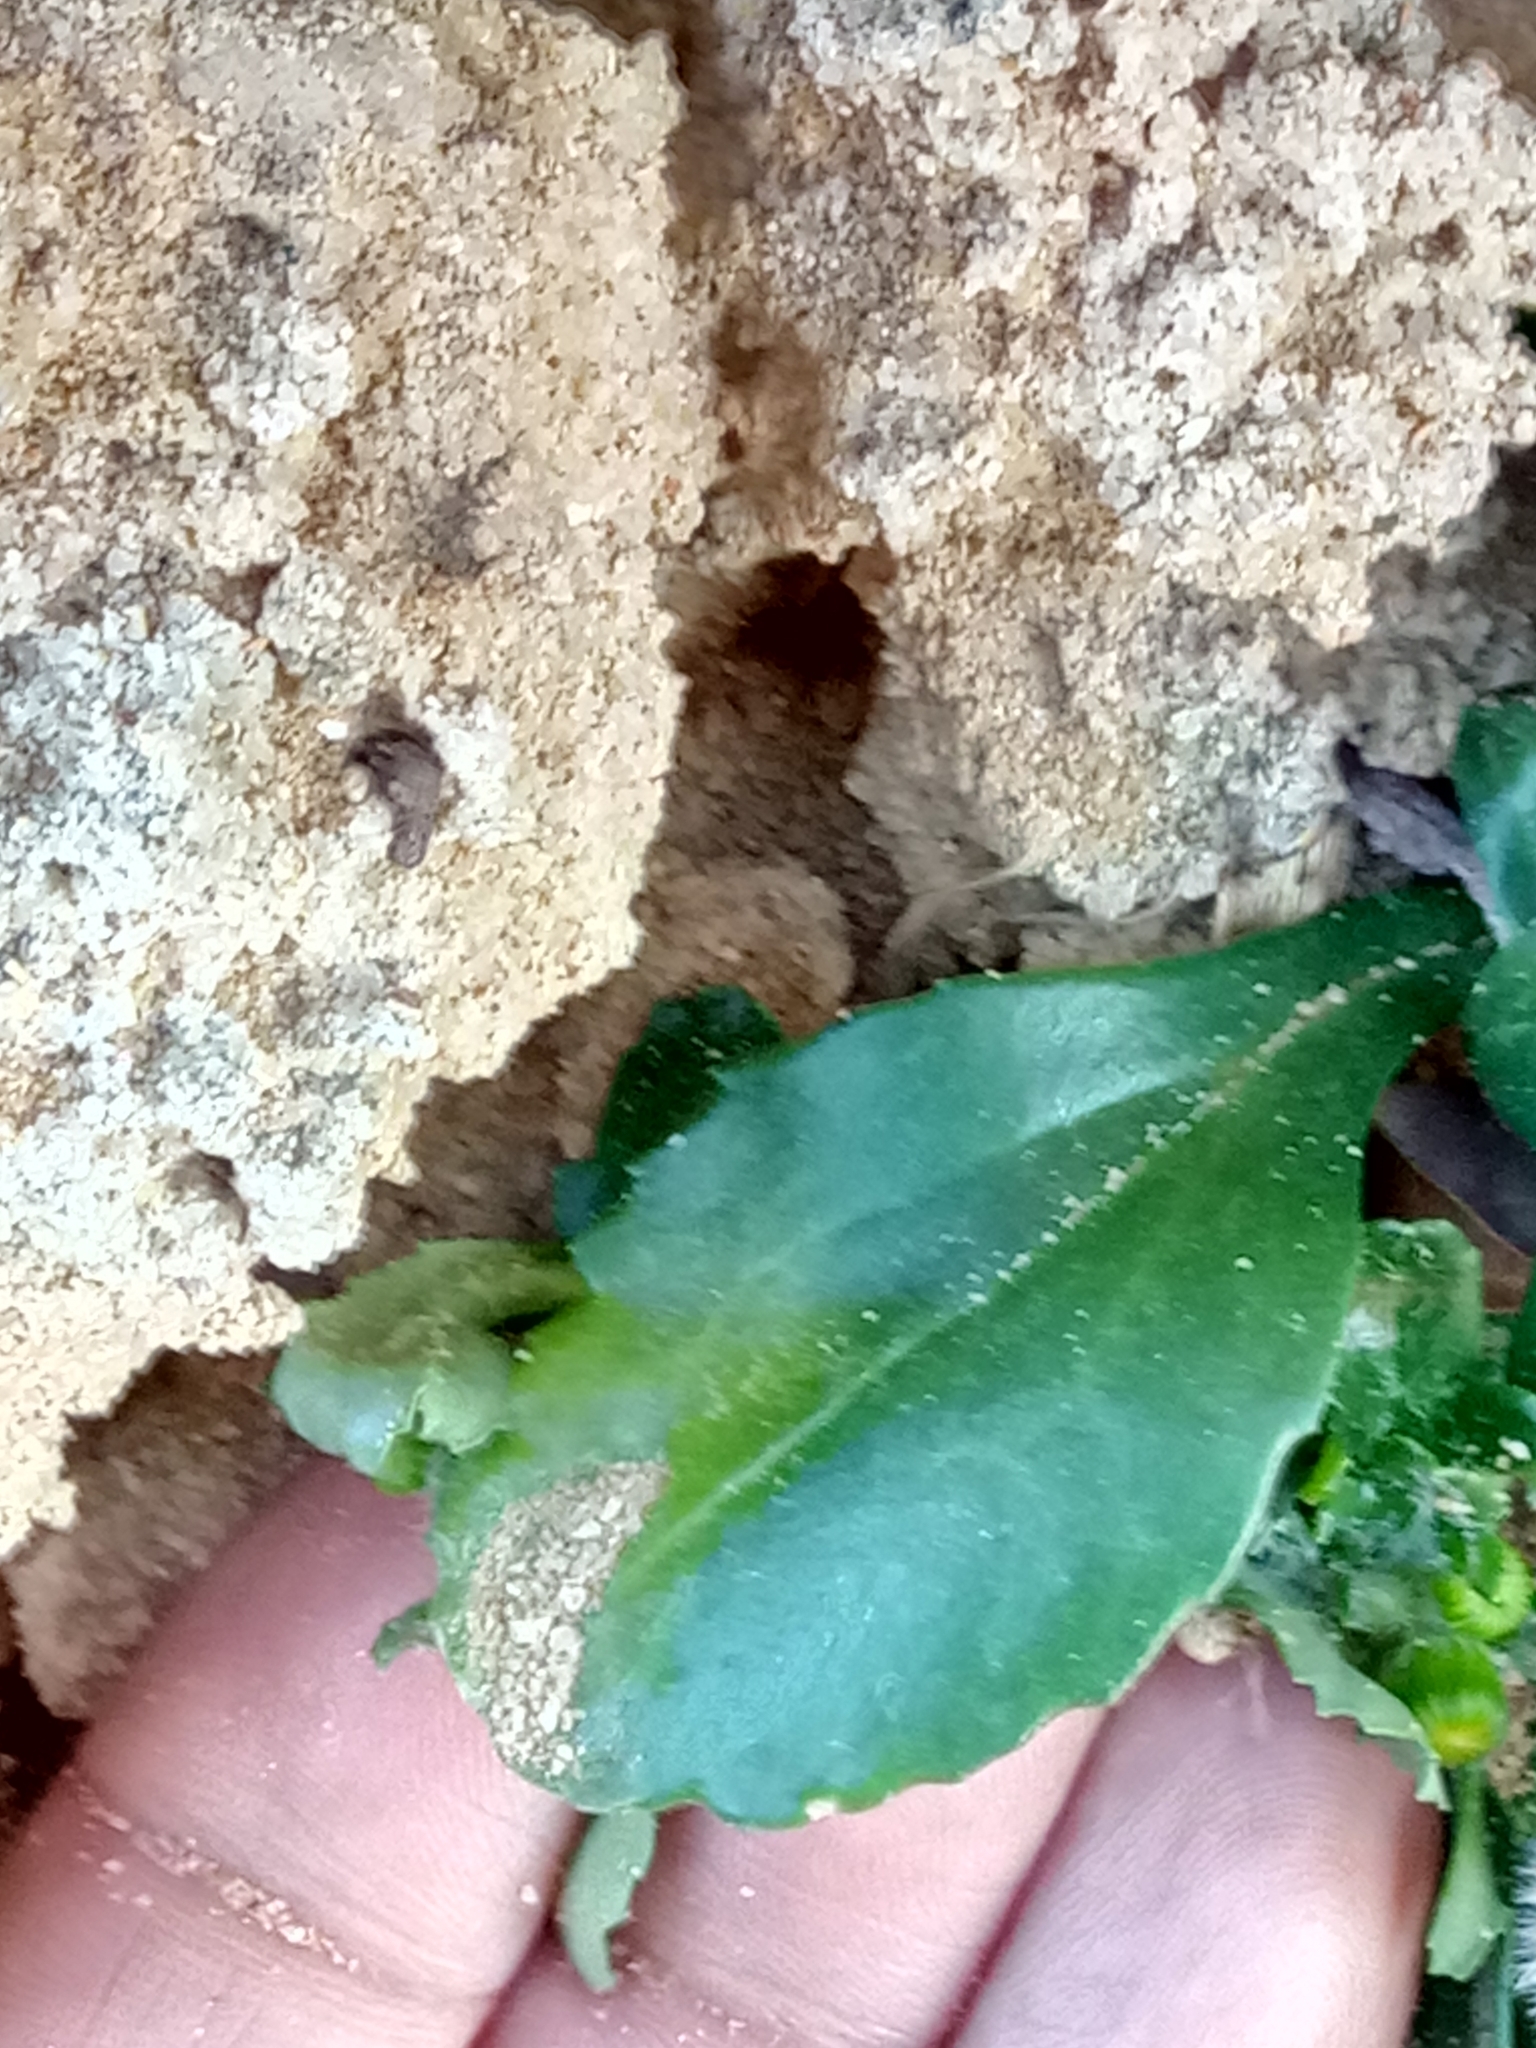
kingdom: Plantae
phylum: Tracheophyta
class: Magnoliopsida
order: Asterales
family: Asteraceae
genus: Senecio
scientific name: Senecio leucanthemifolius
